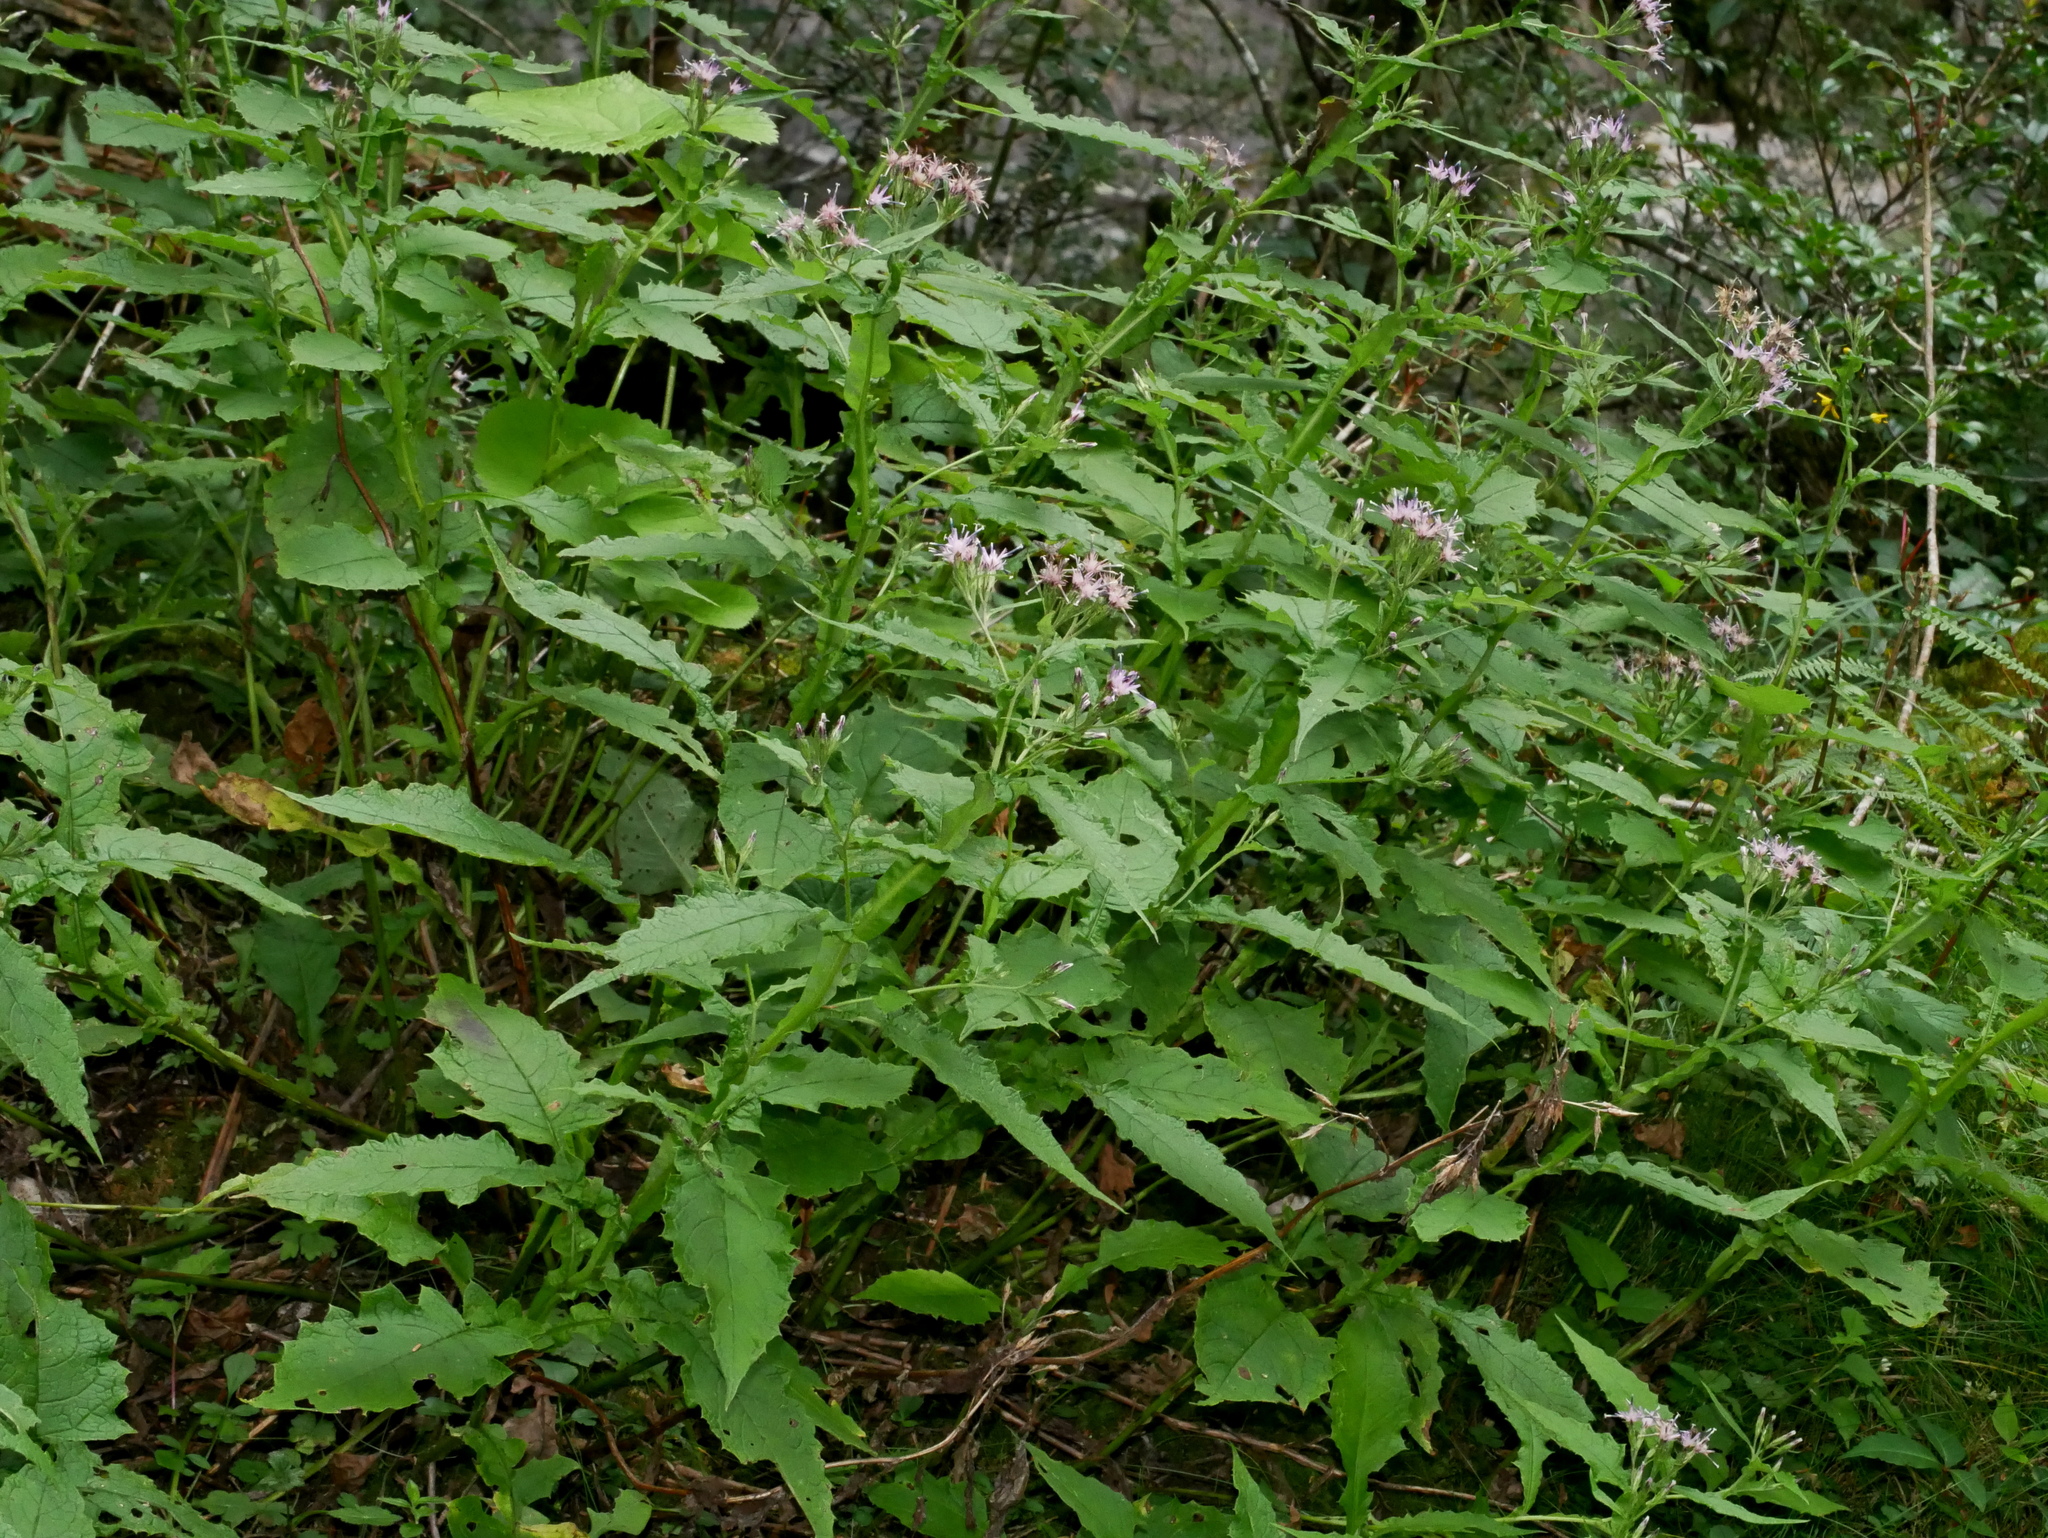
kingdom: Plantae
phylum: Tracheophyta
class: Magnoliopsida
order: Asterales
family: Asteraceae
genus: Saussurea
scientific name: Saussurea glandulosa
